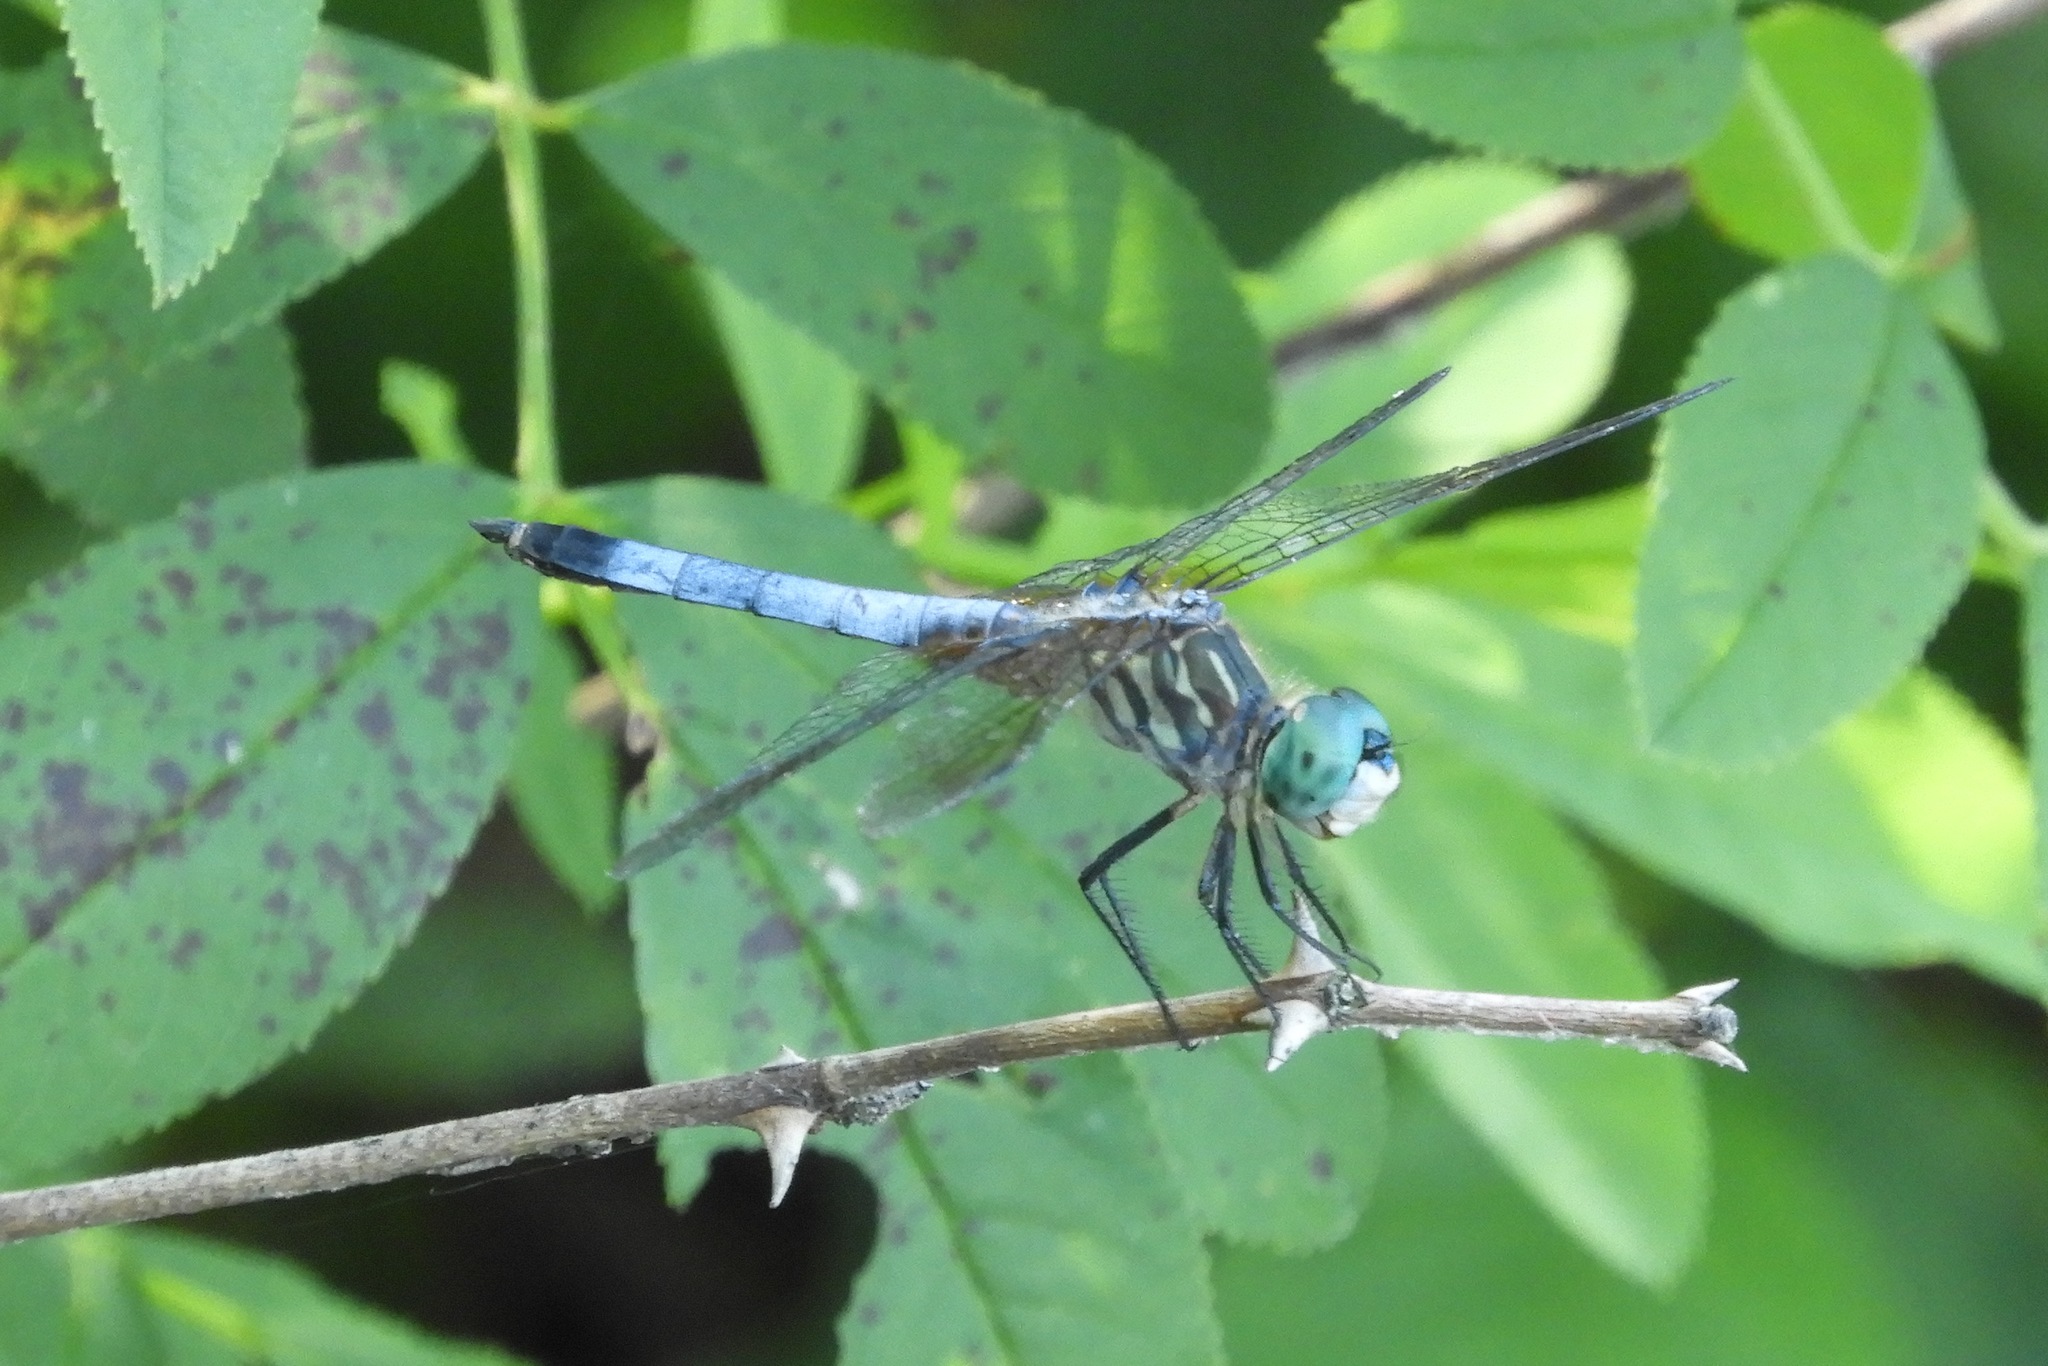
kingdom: Animalia
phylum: Arthropoda
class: Insecta
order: Odonata
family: Libellulidae
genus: Pachydiplax
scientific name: Pachydiplax longipennis
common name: Blue dasher
